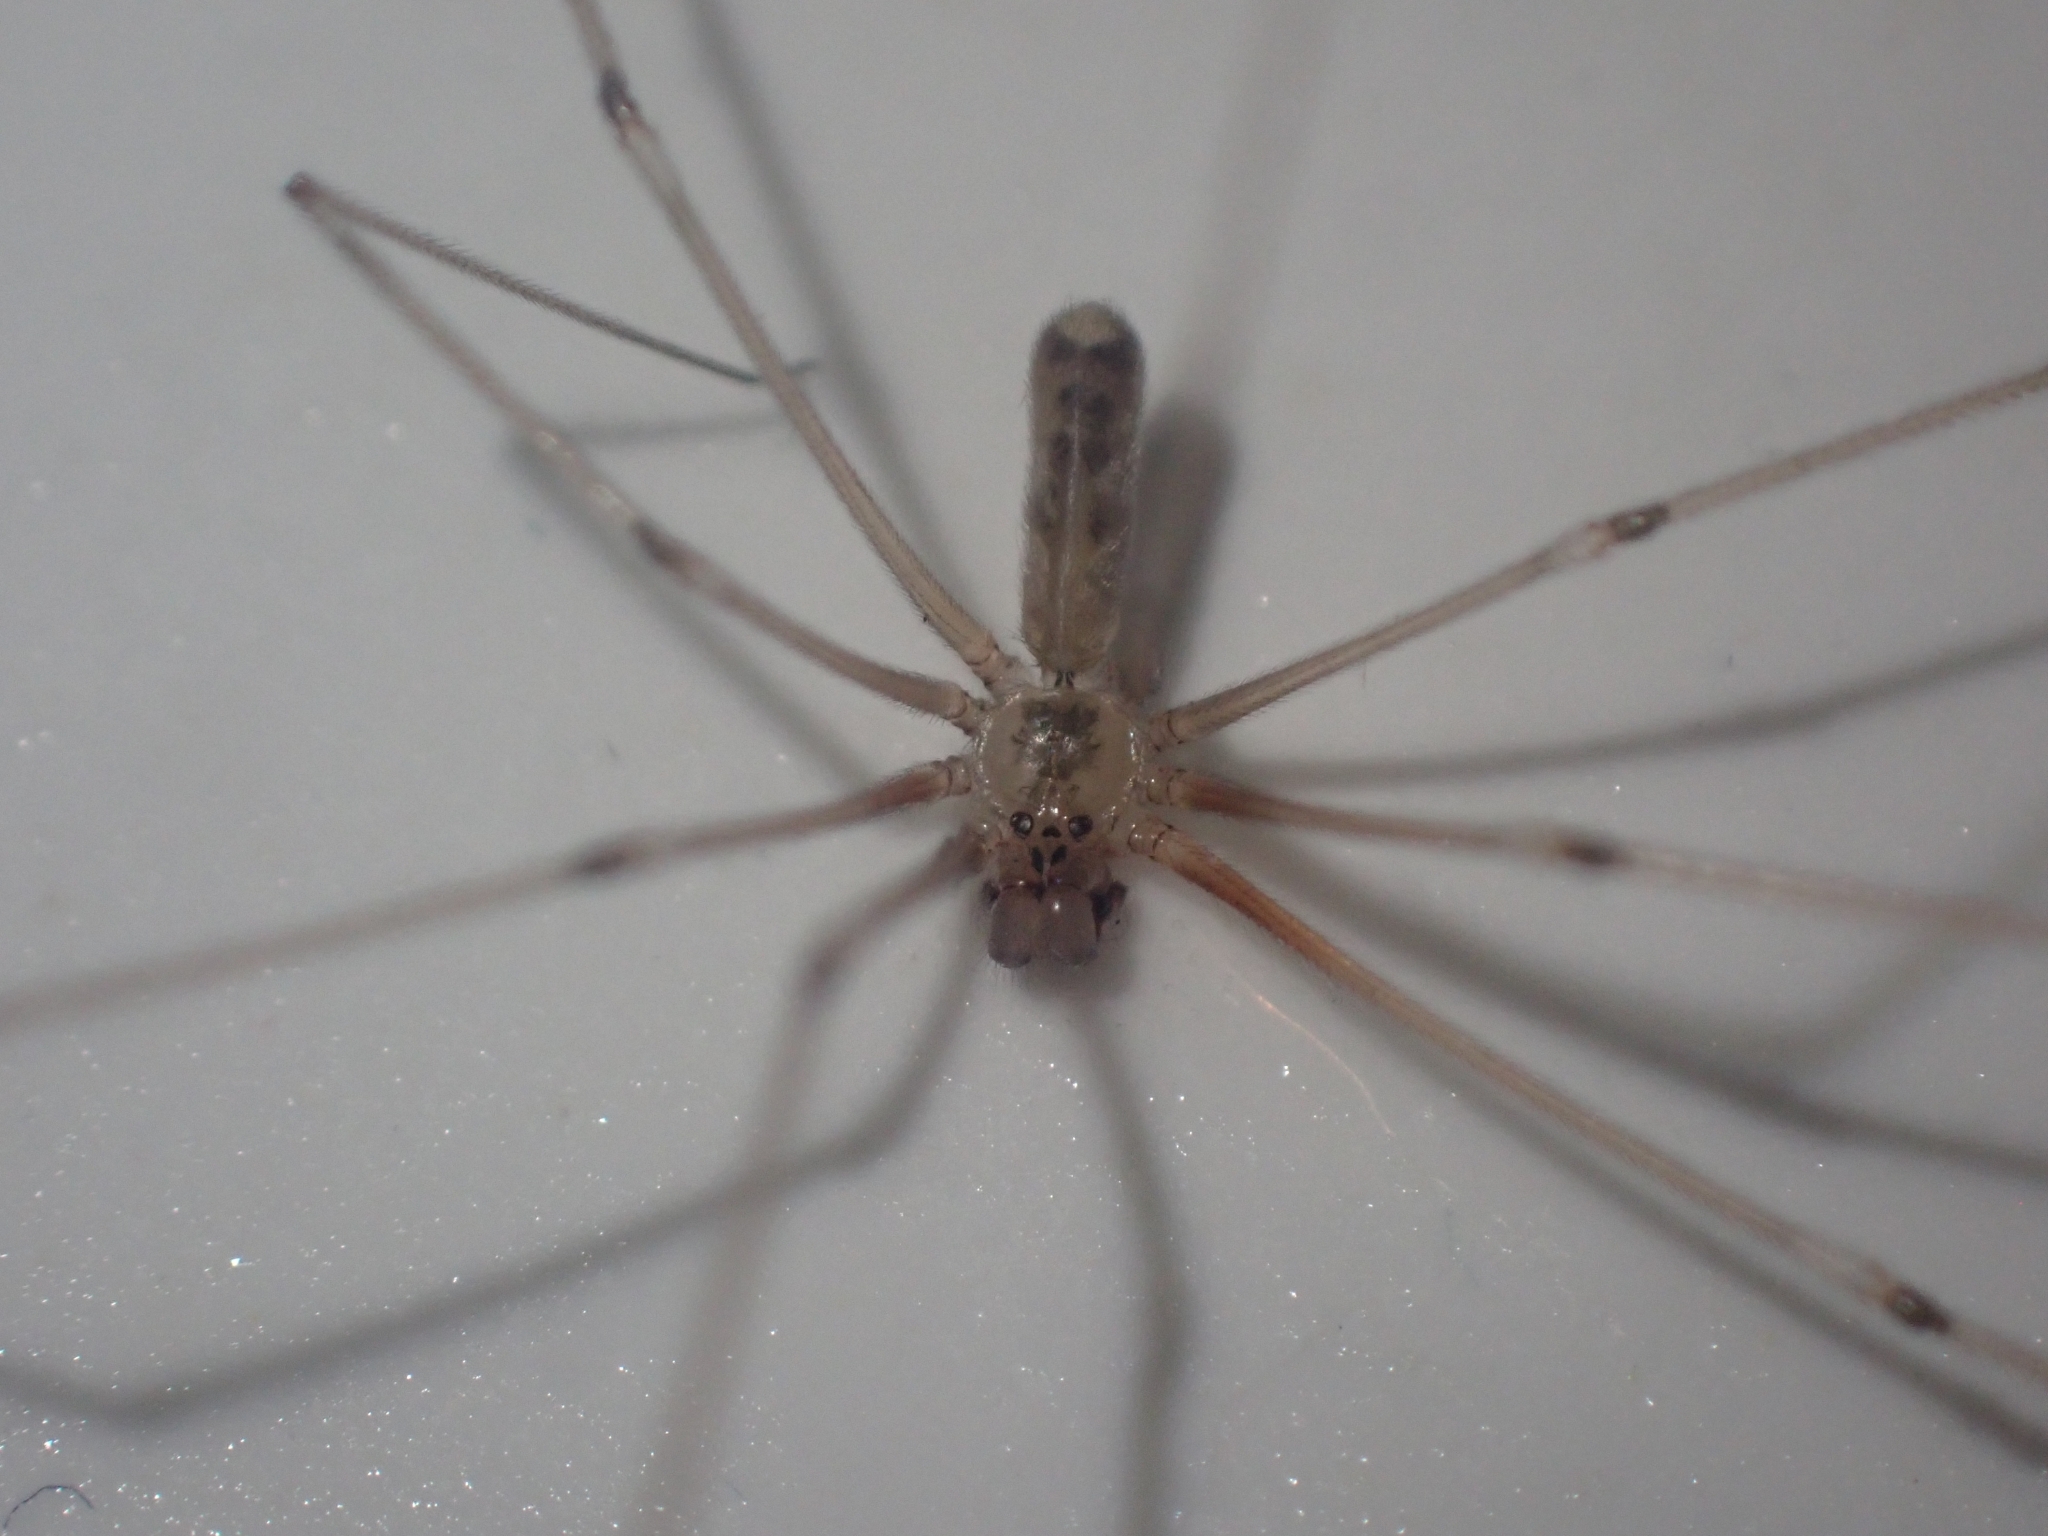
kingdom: Animalia
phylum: Arthropoda
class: Arachnida
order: Araneae
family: Pholcidae
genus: Pholcus
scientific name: Pholcus phalangioides
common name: Longbodied cellar spider
